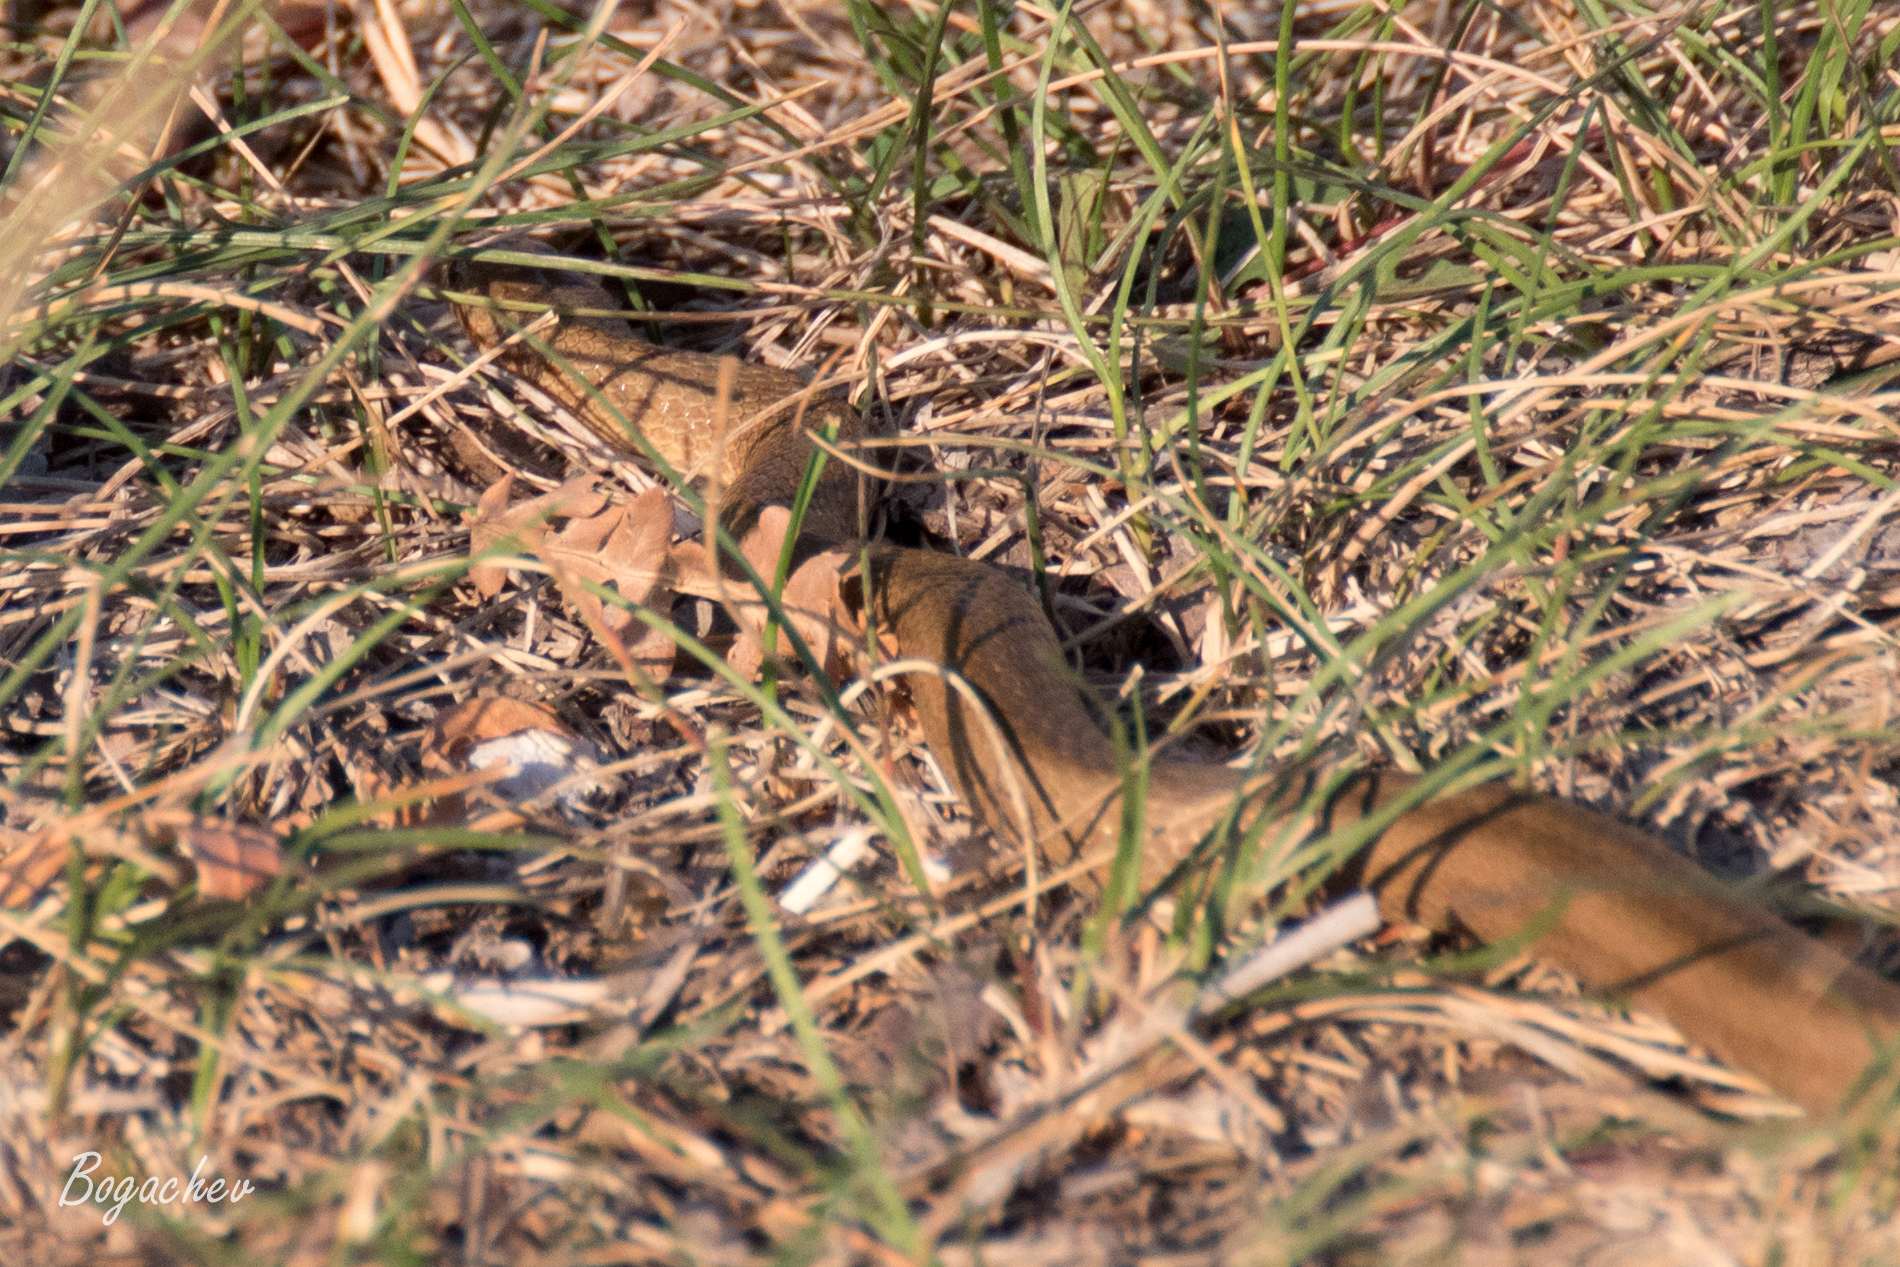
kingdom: Animalia
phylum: Chordata
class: Squamata
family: Colubridae
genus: Coronella
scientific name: Coronella austriaca
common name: Smooth snake
